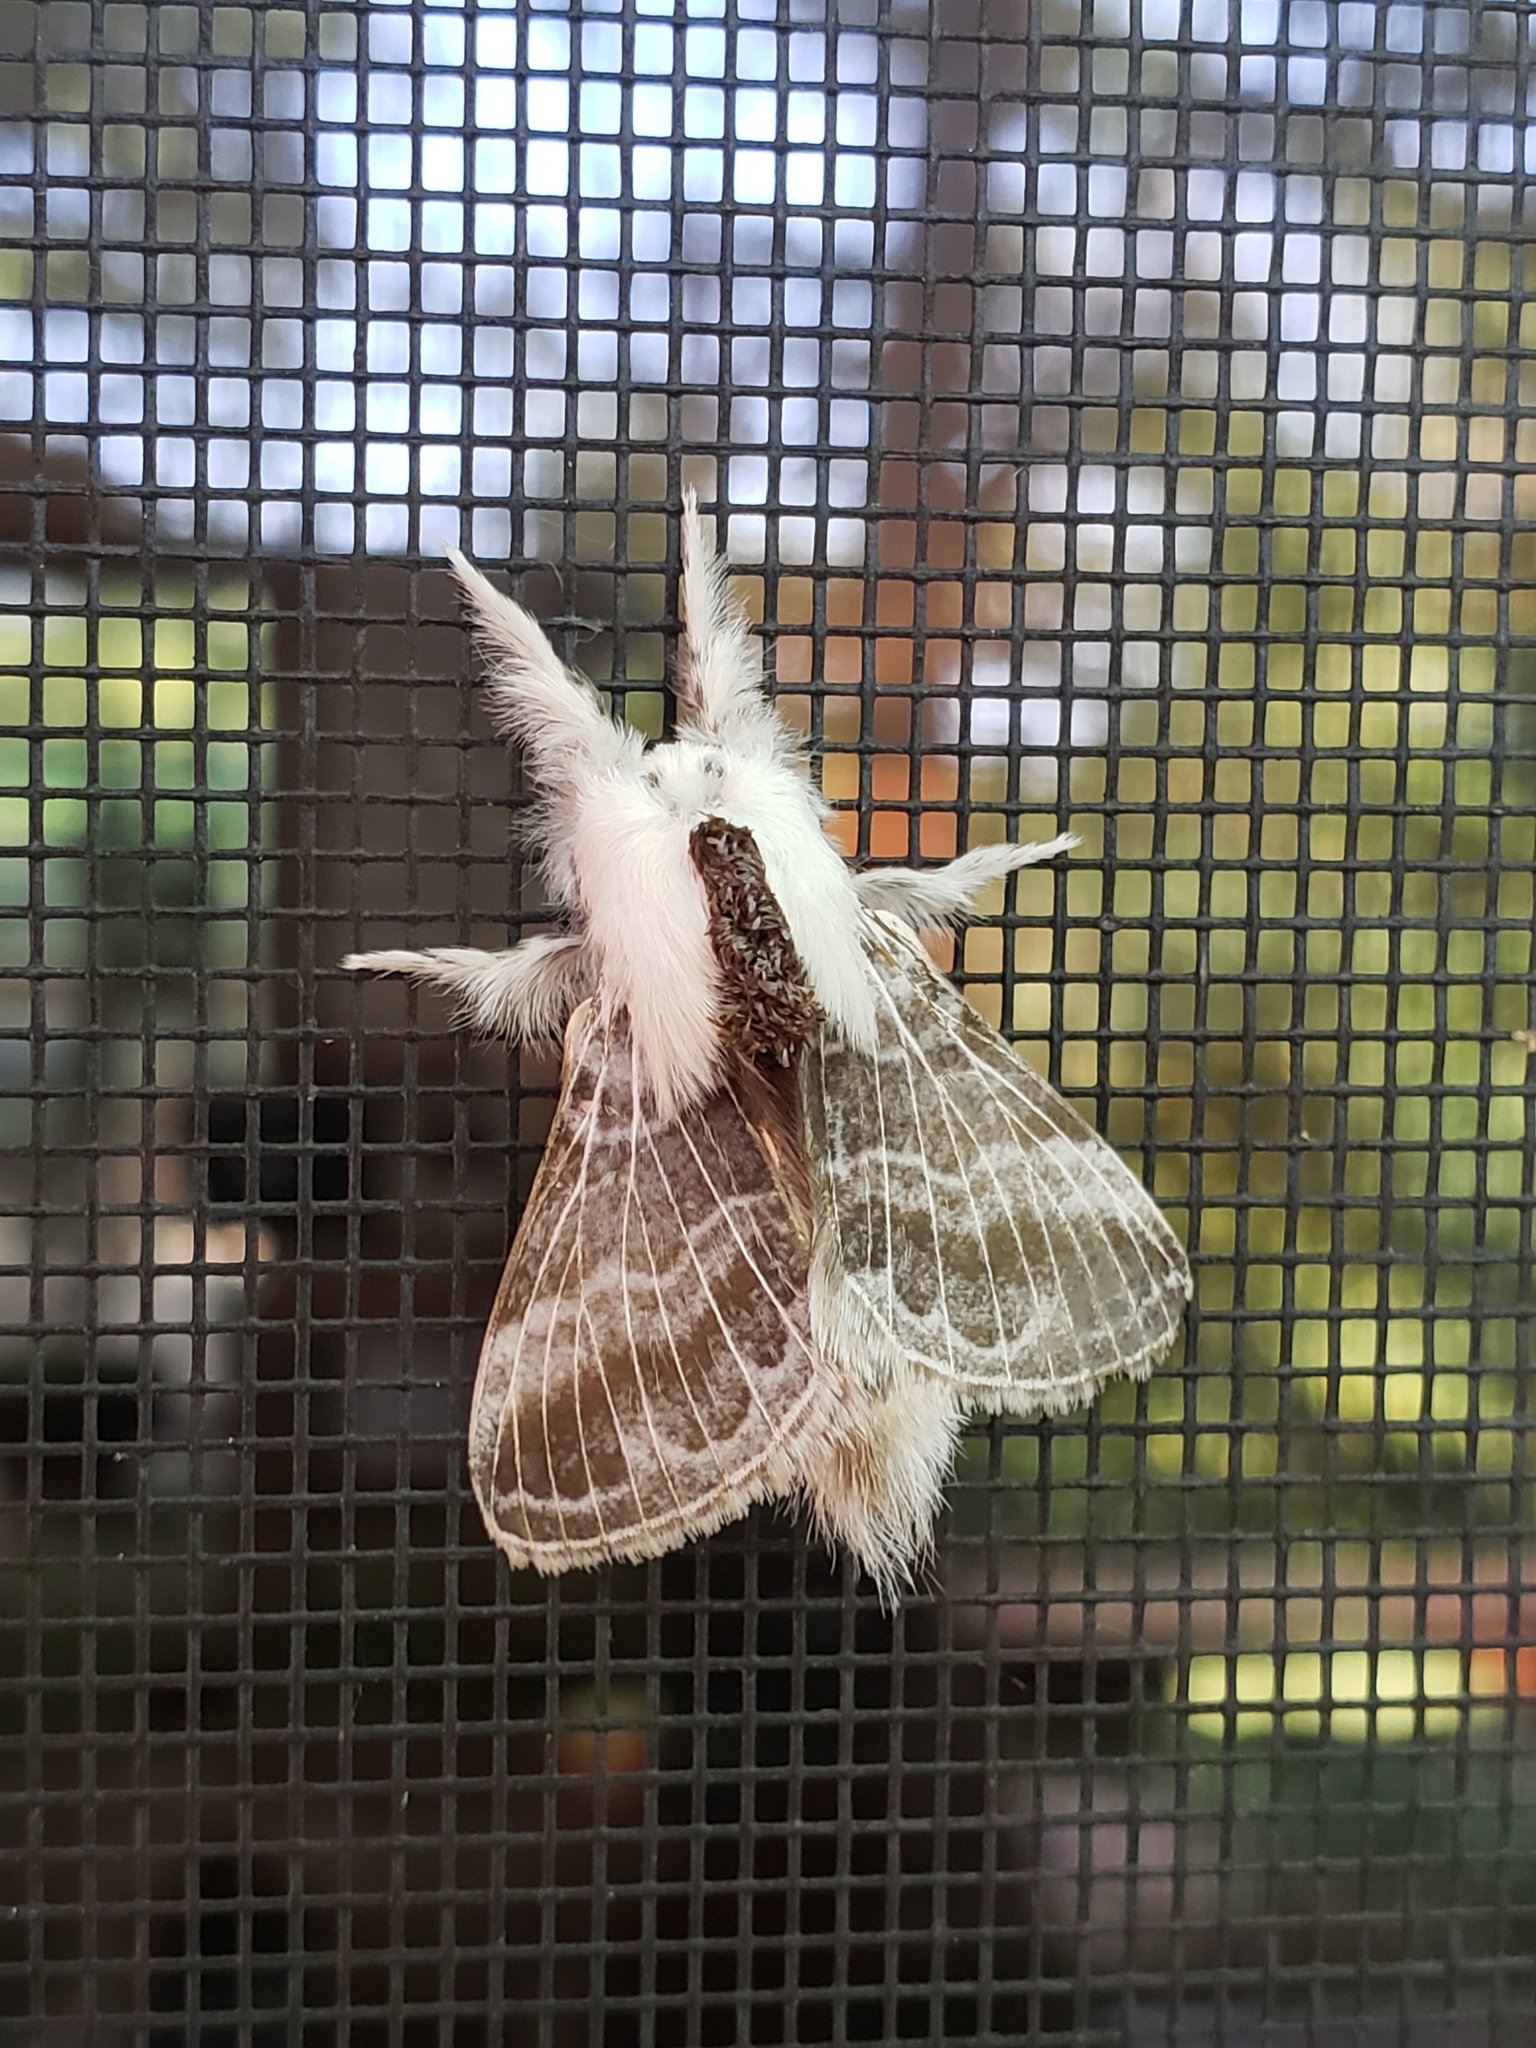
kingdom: Animalia
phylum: Arthropoda
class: Insecta
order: Lepidoptera
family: Lasiocampidae
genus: Tolype
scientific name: Tolype velleda
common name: Large tolype moth
